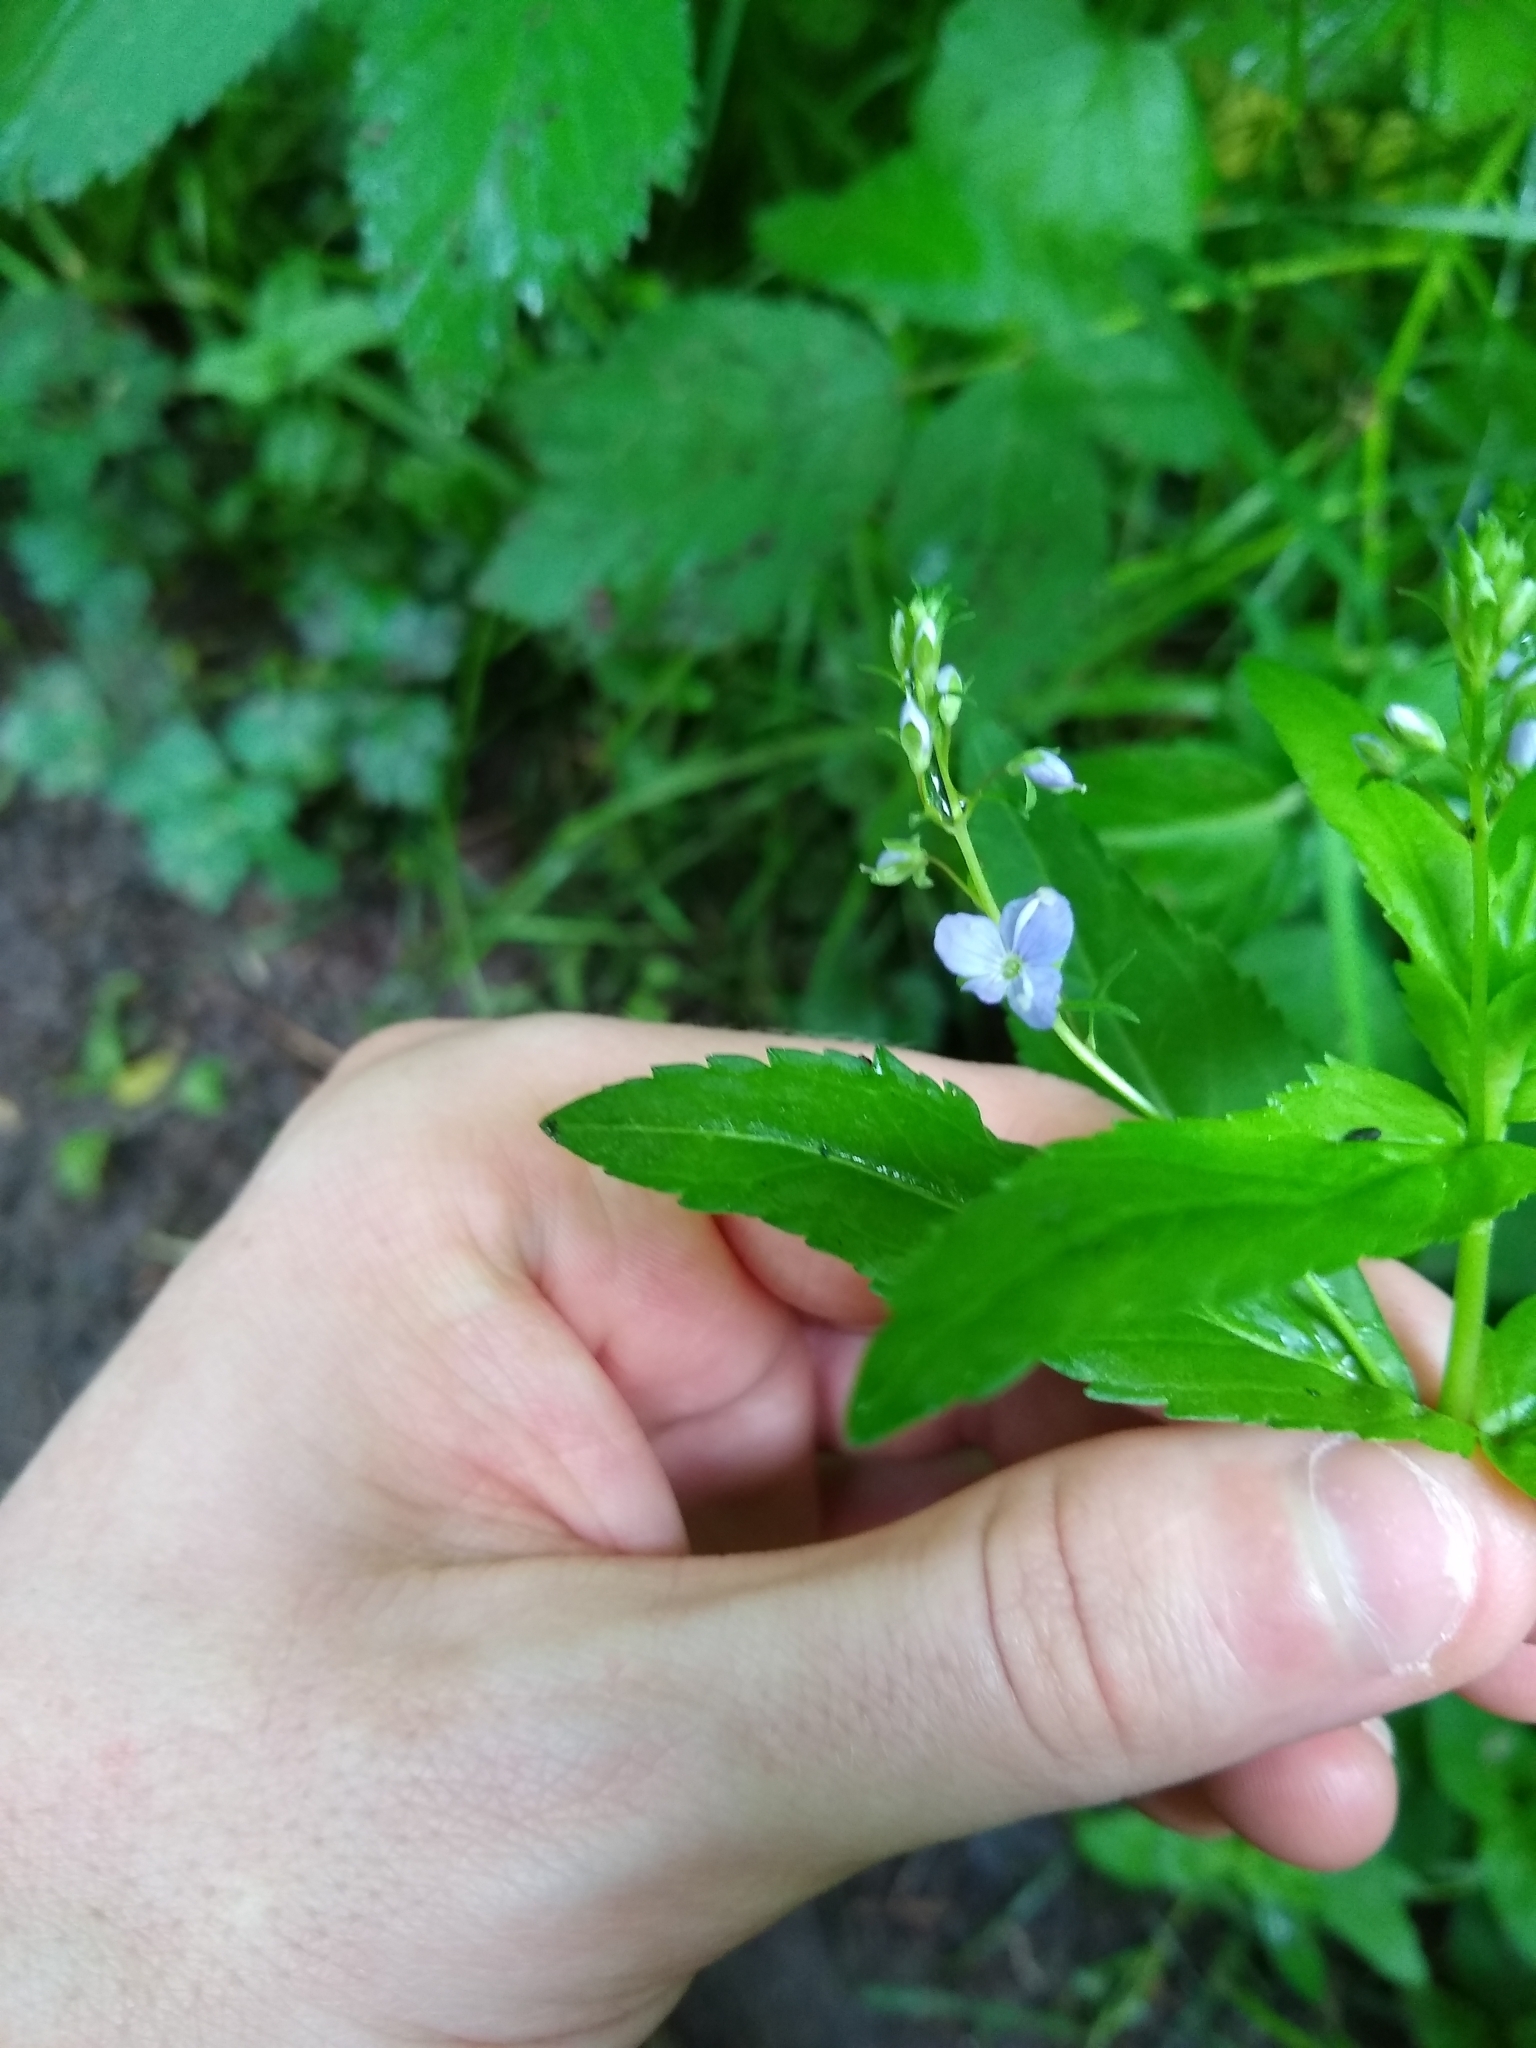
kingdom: Plantae
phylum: Tracheophyta
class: Magnoliopsida
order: Lamiales
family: Plantaginaceae
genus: Veronica
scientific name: Veronica americana
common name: American brooklime
